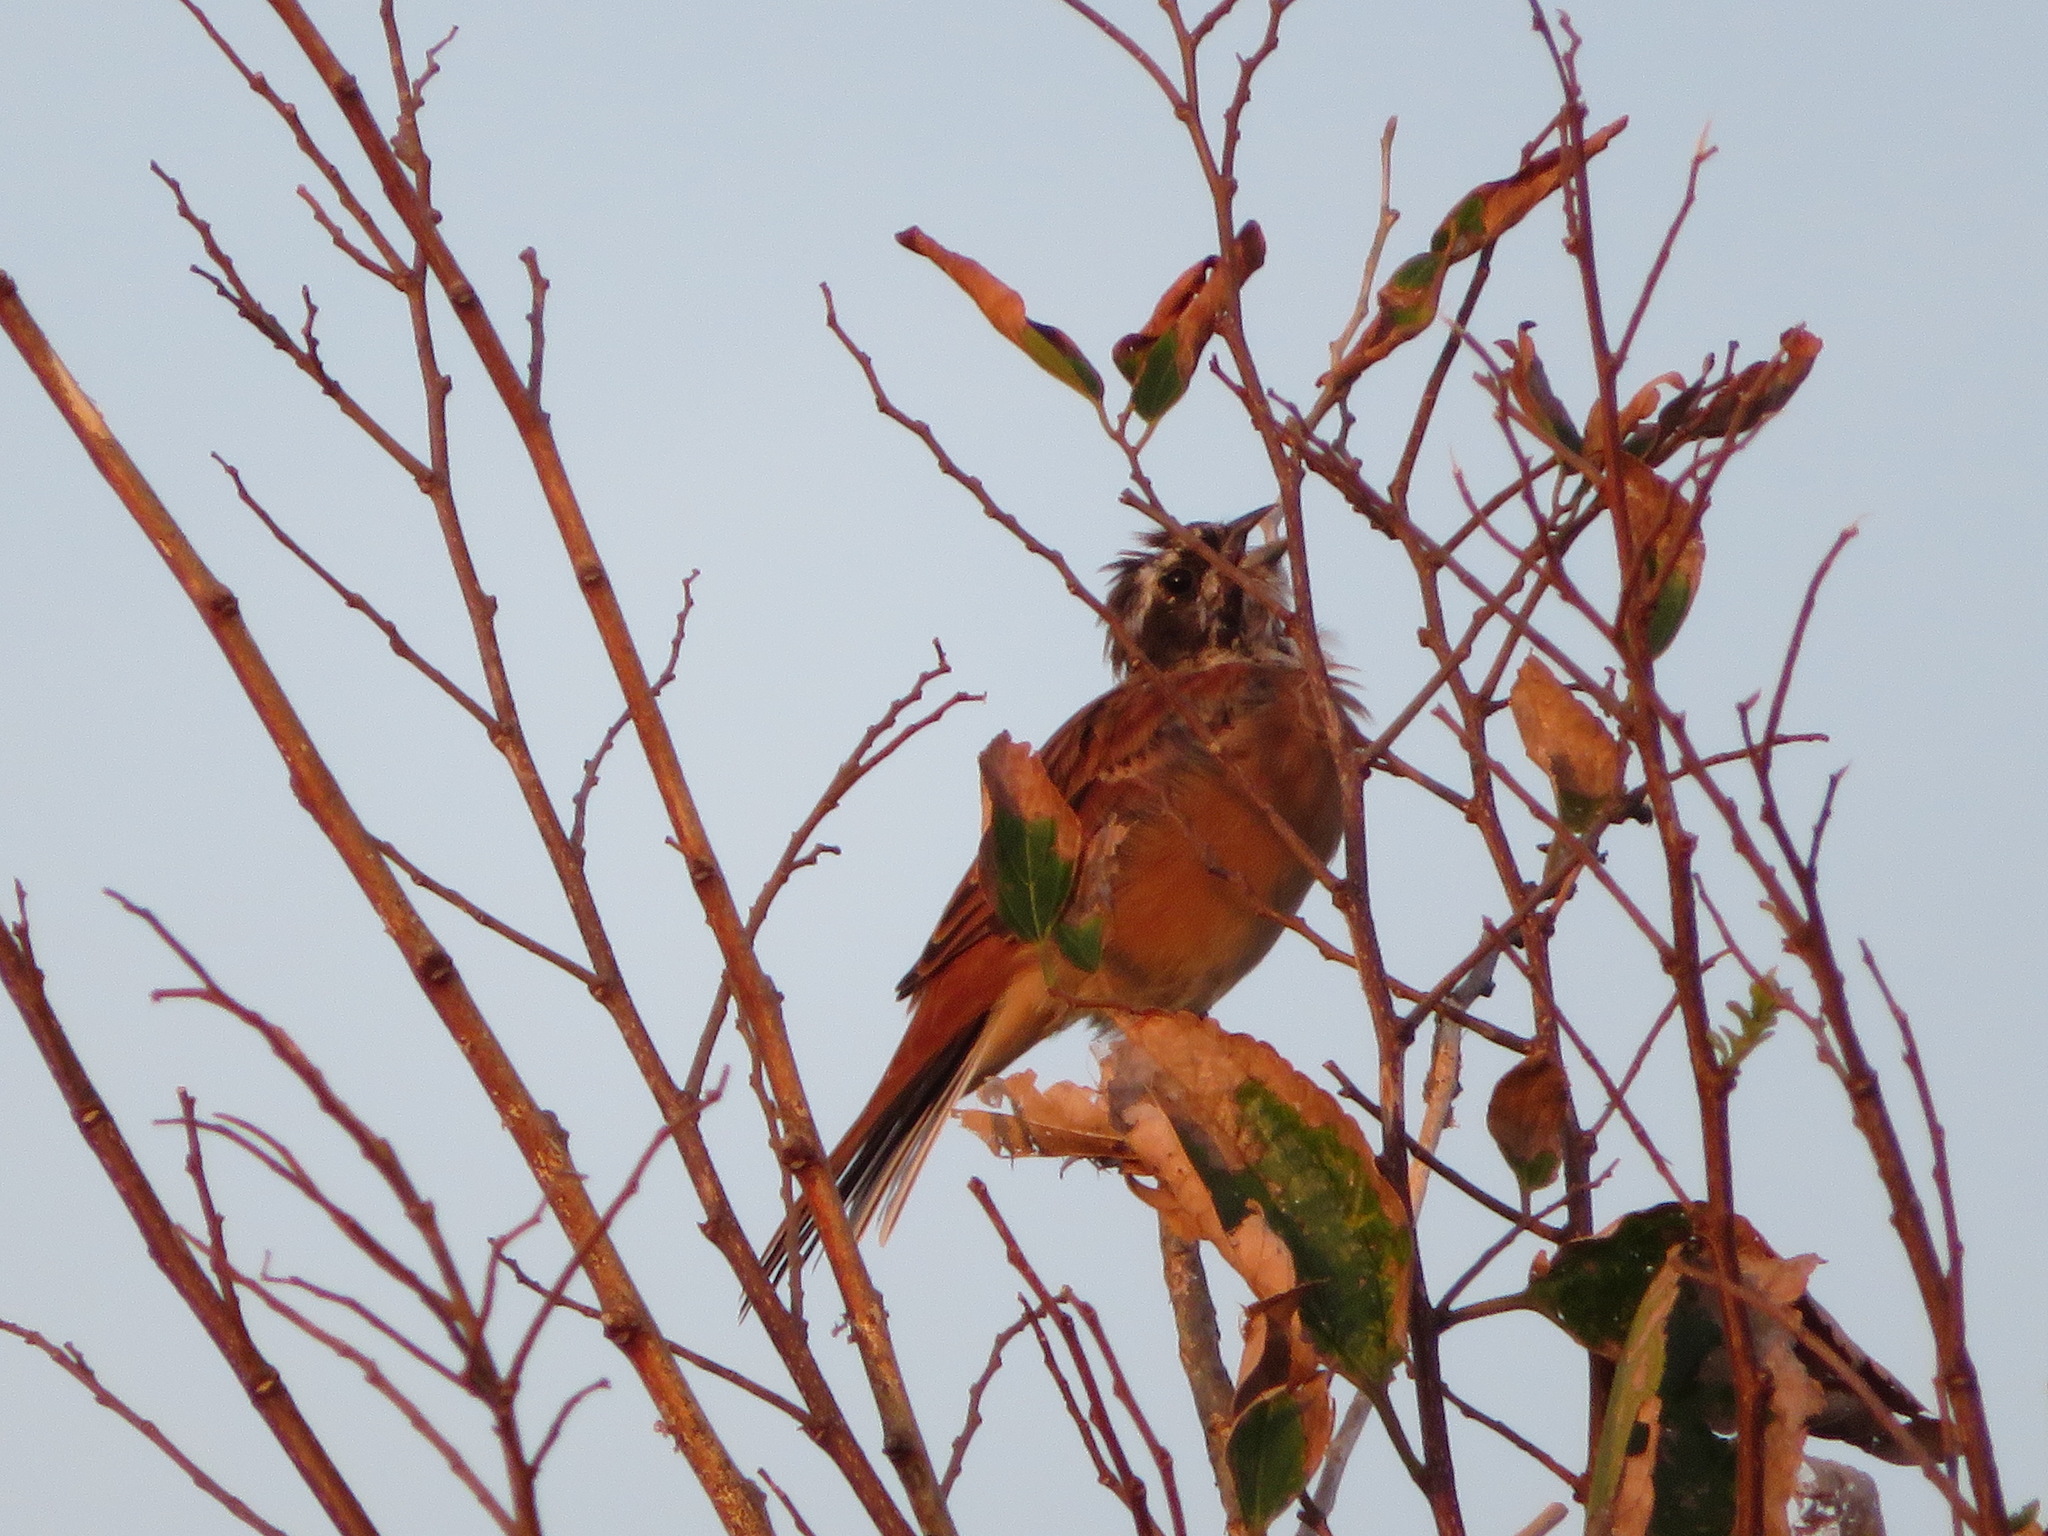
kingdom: Animalia
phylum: Chordata
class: Aves
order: Passeriformes
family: Emberizidae
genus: Emberiza
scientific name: Emberiza cioides
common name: Meadow bunting
